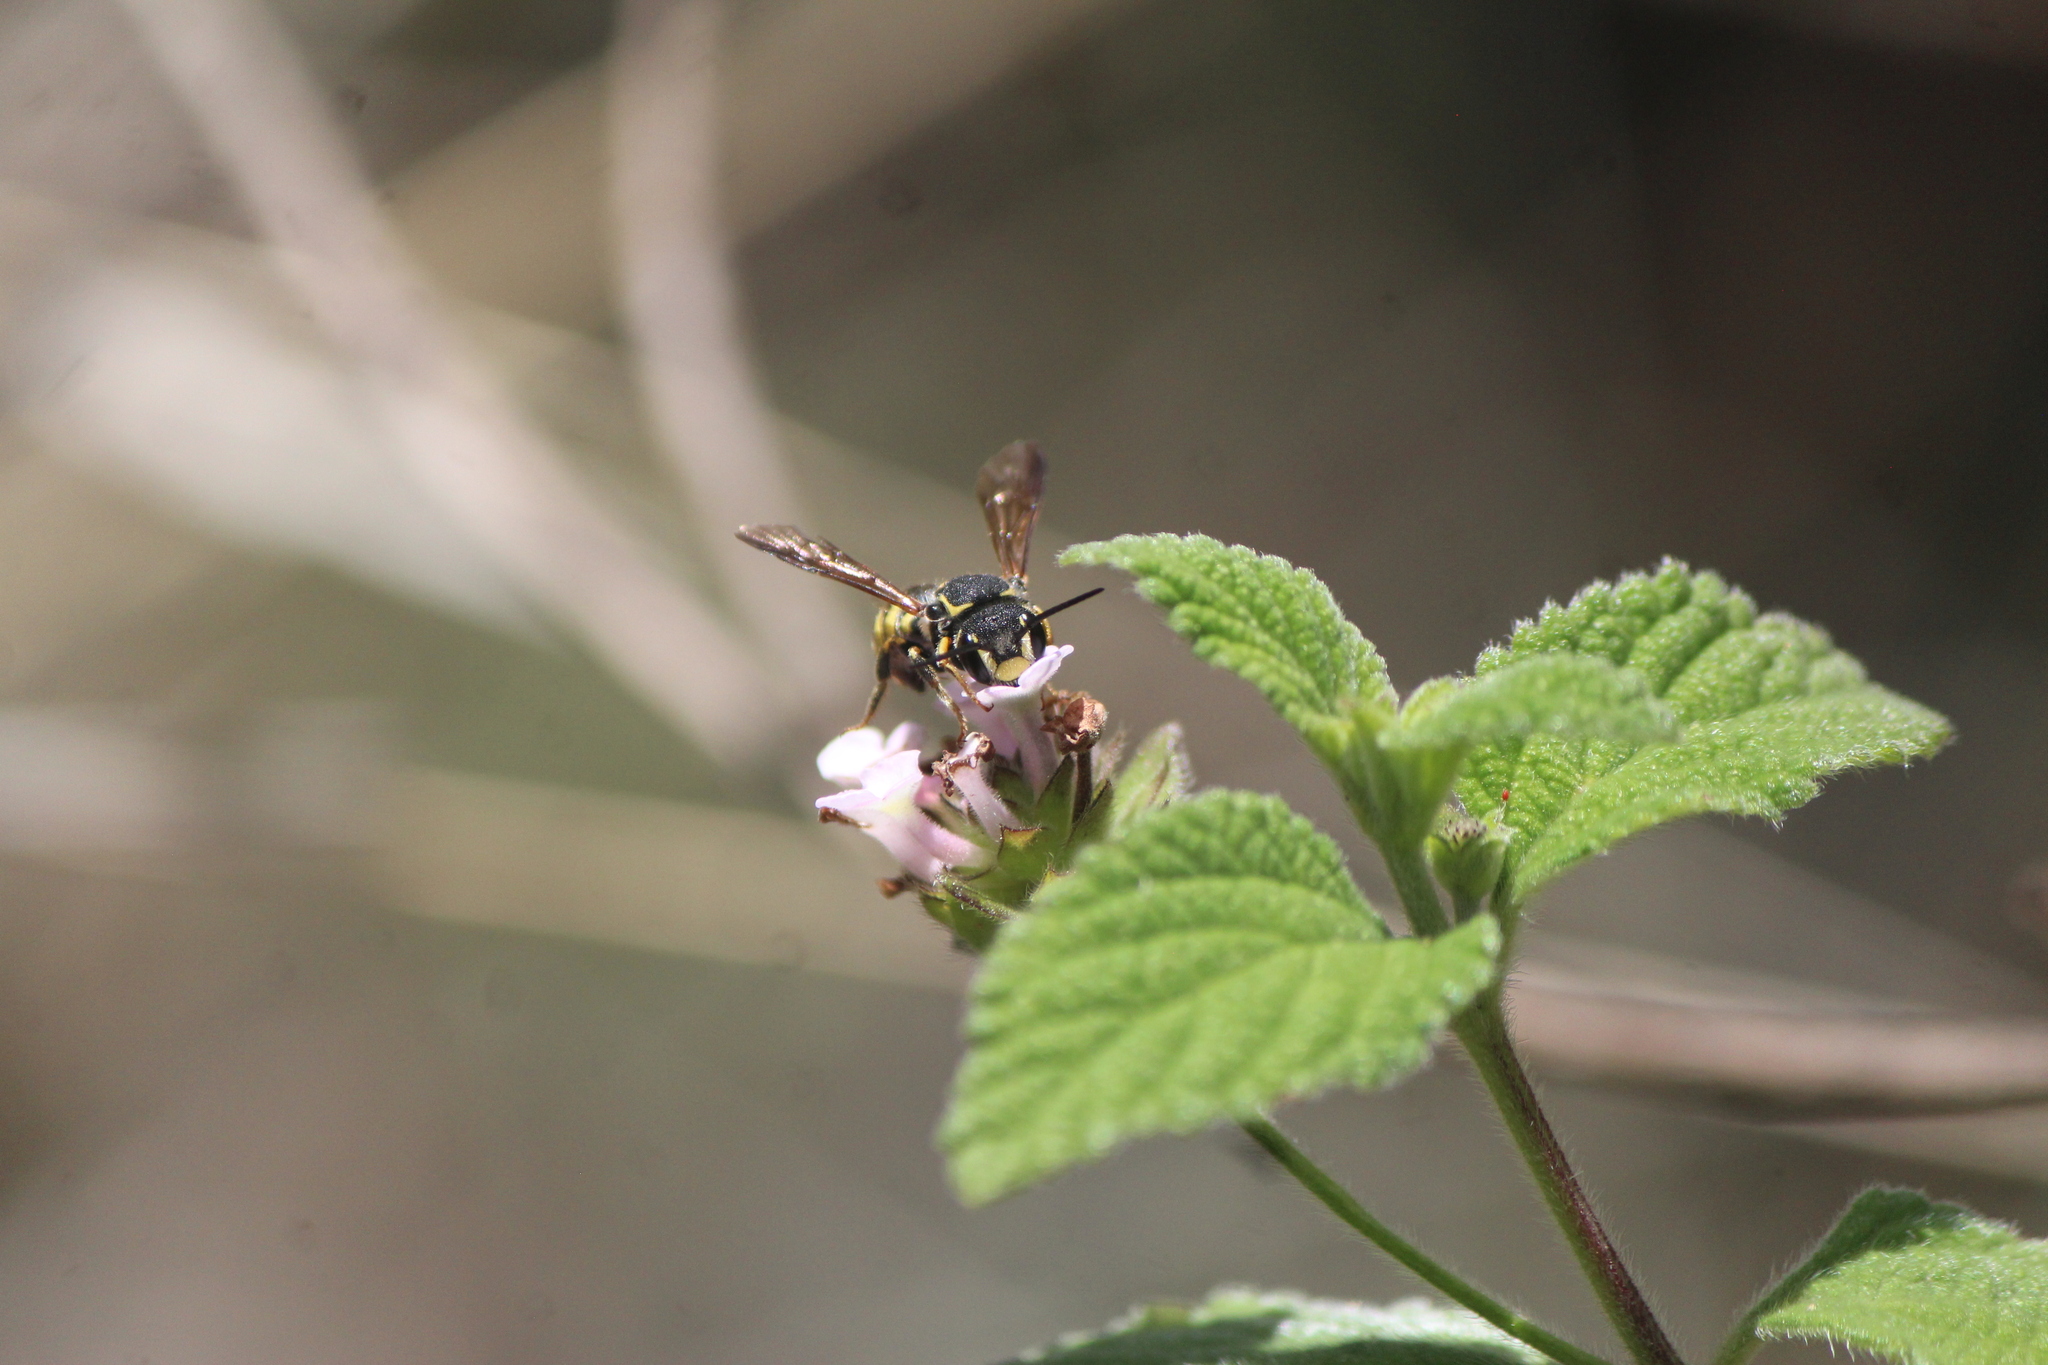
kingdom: Animalia
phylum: Arthropoda
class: Insecta
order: Hymenoptera
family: Megachilidae
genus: Paranthidium
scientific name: Paranthidium gabbii
